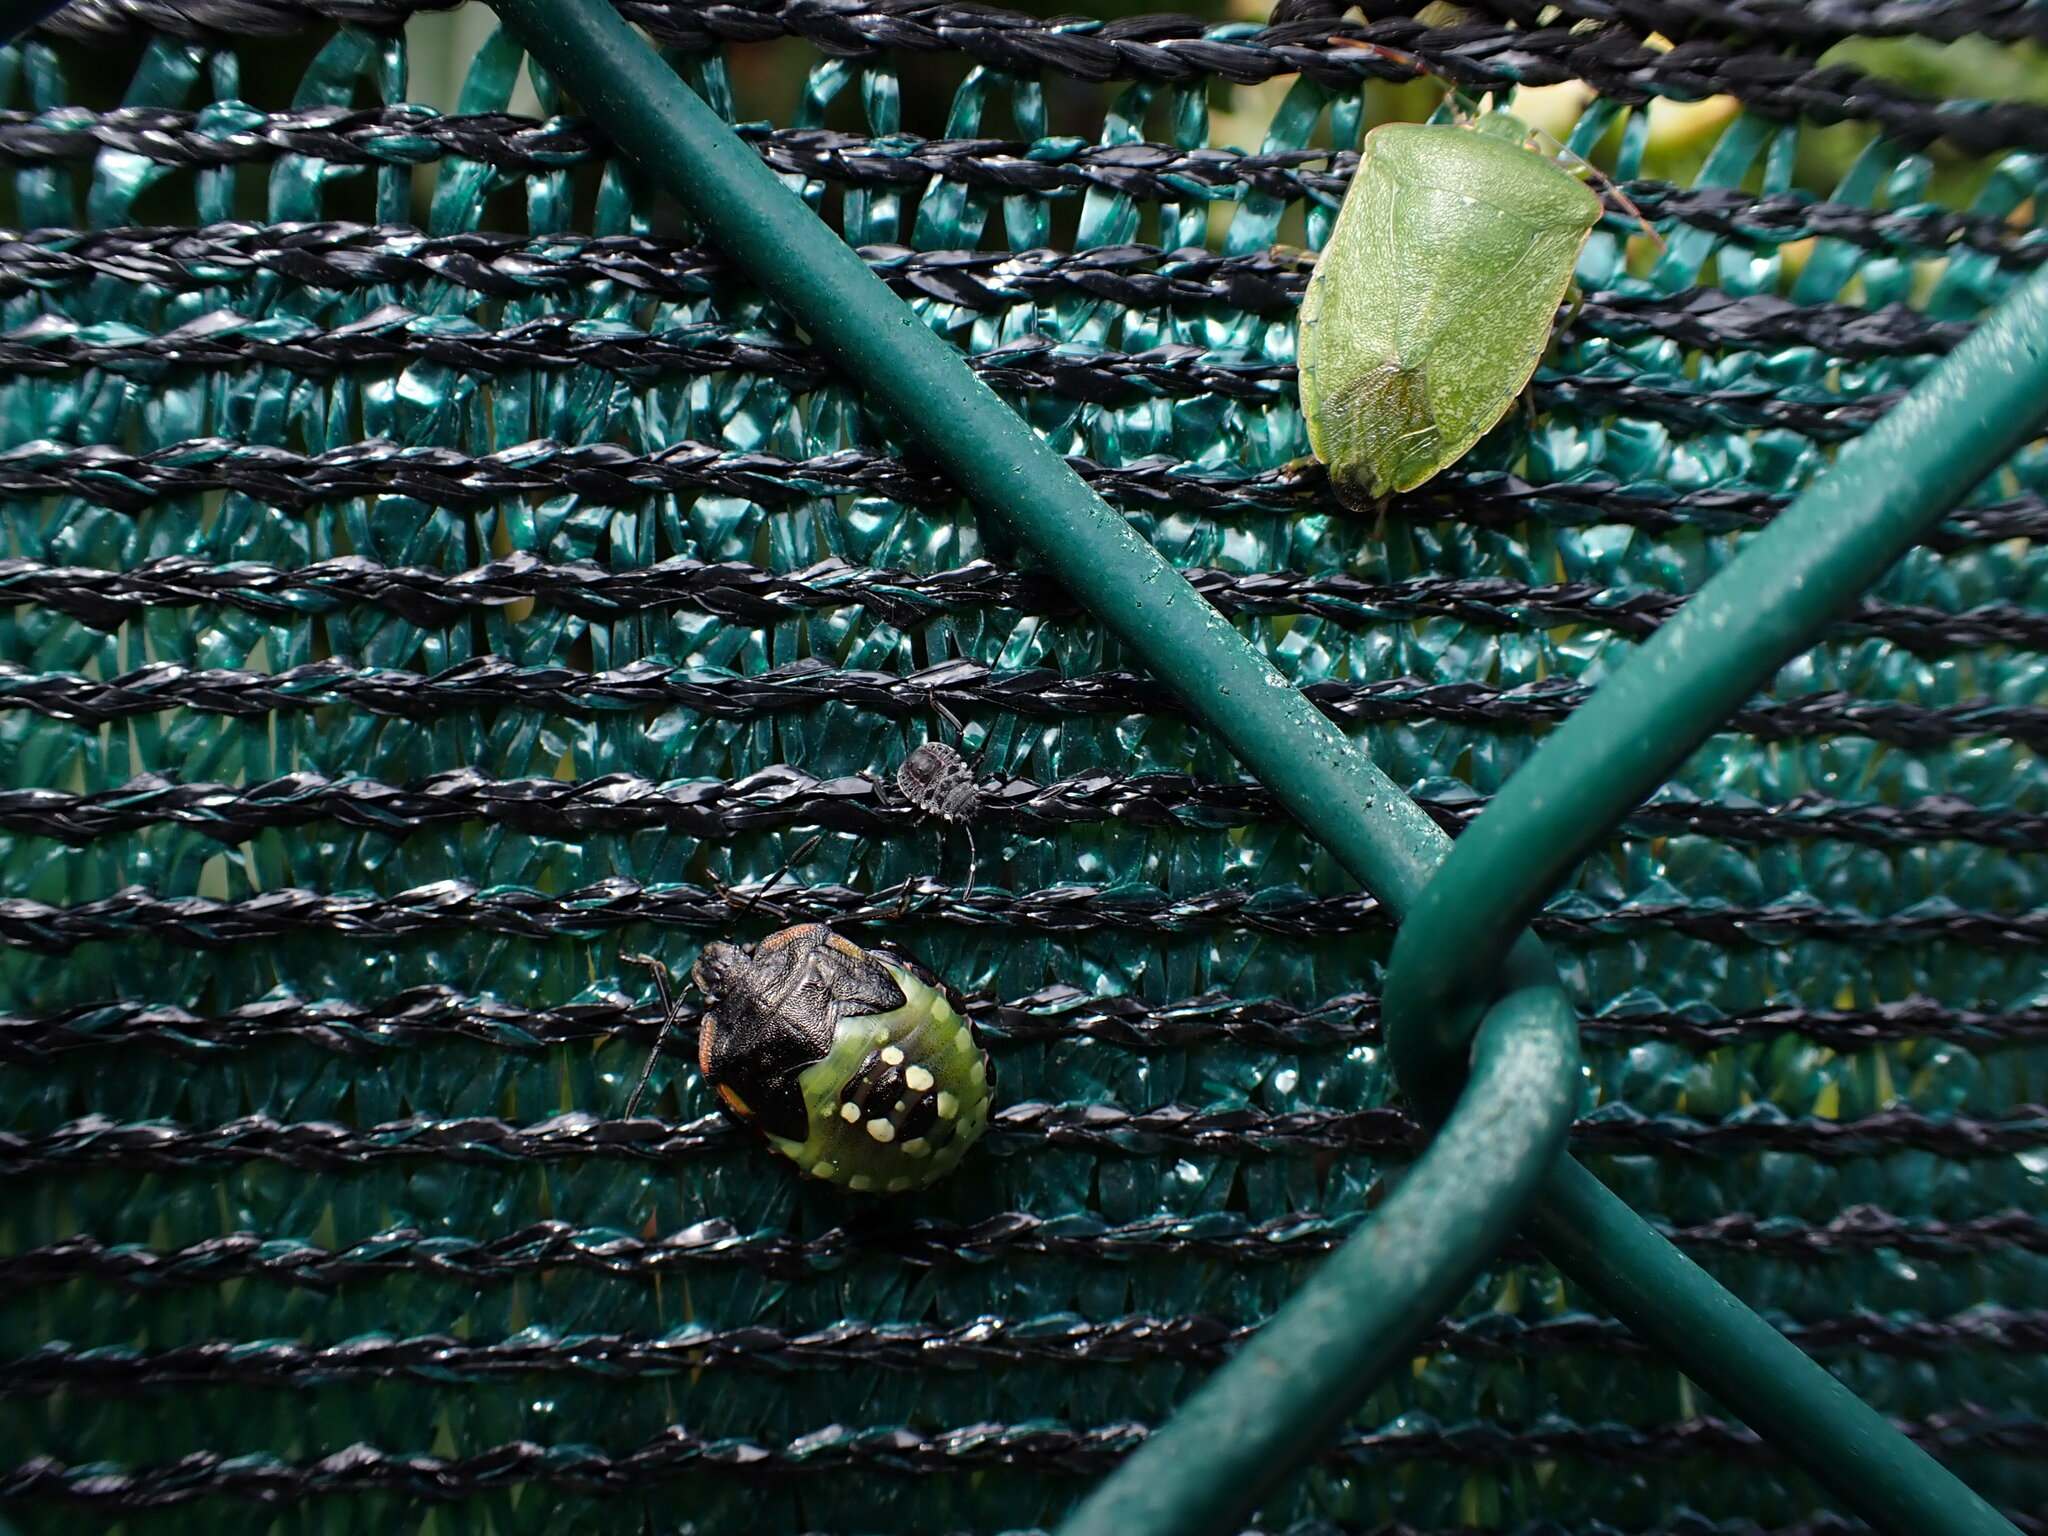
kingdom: Animalia
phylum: Arthropoda
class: Insecta
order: Hemiptera
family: Pentatomidae
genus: Halyomorpha
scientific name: Halyomorpha halys
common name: Brown marmorated stink bug
